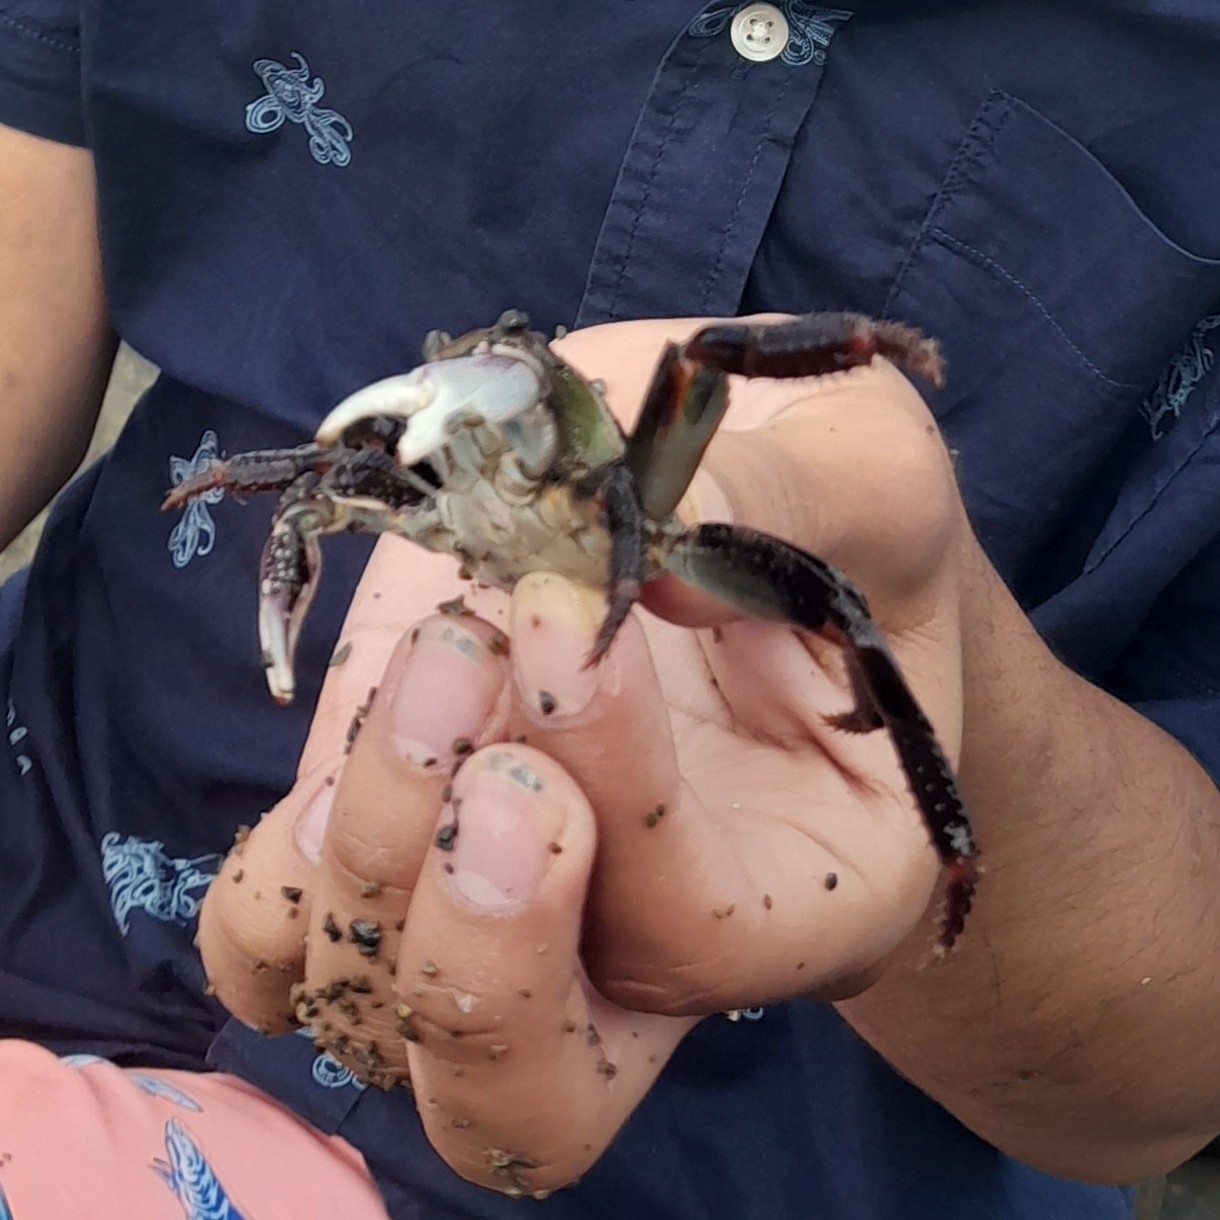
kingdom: Animalia
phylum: Arthropoda
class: Malacostraca
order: Decapoda
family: Grapsidae
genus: Leptograpsus
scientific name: Leptograpsus variegatus
